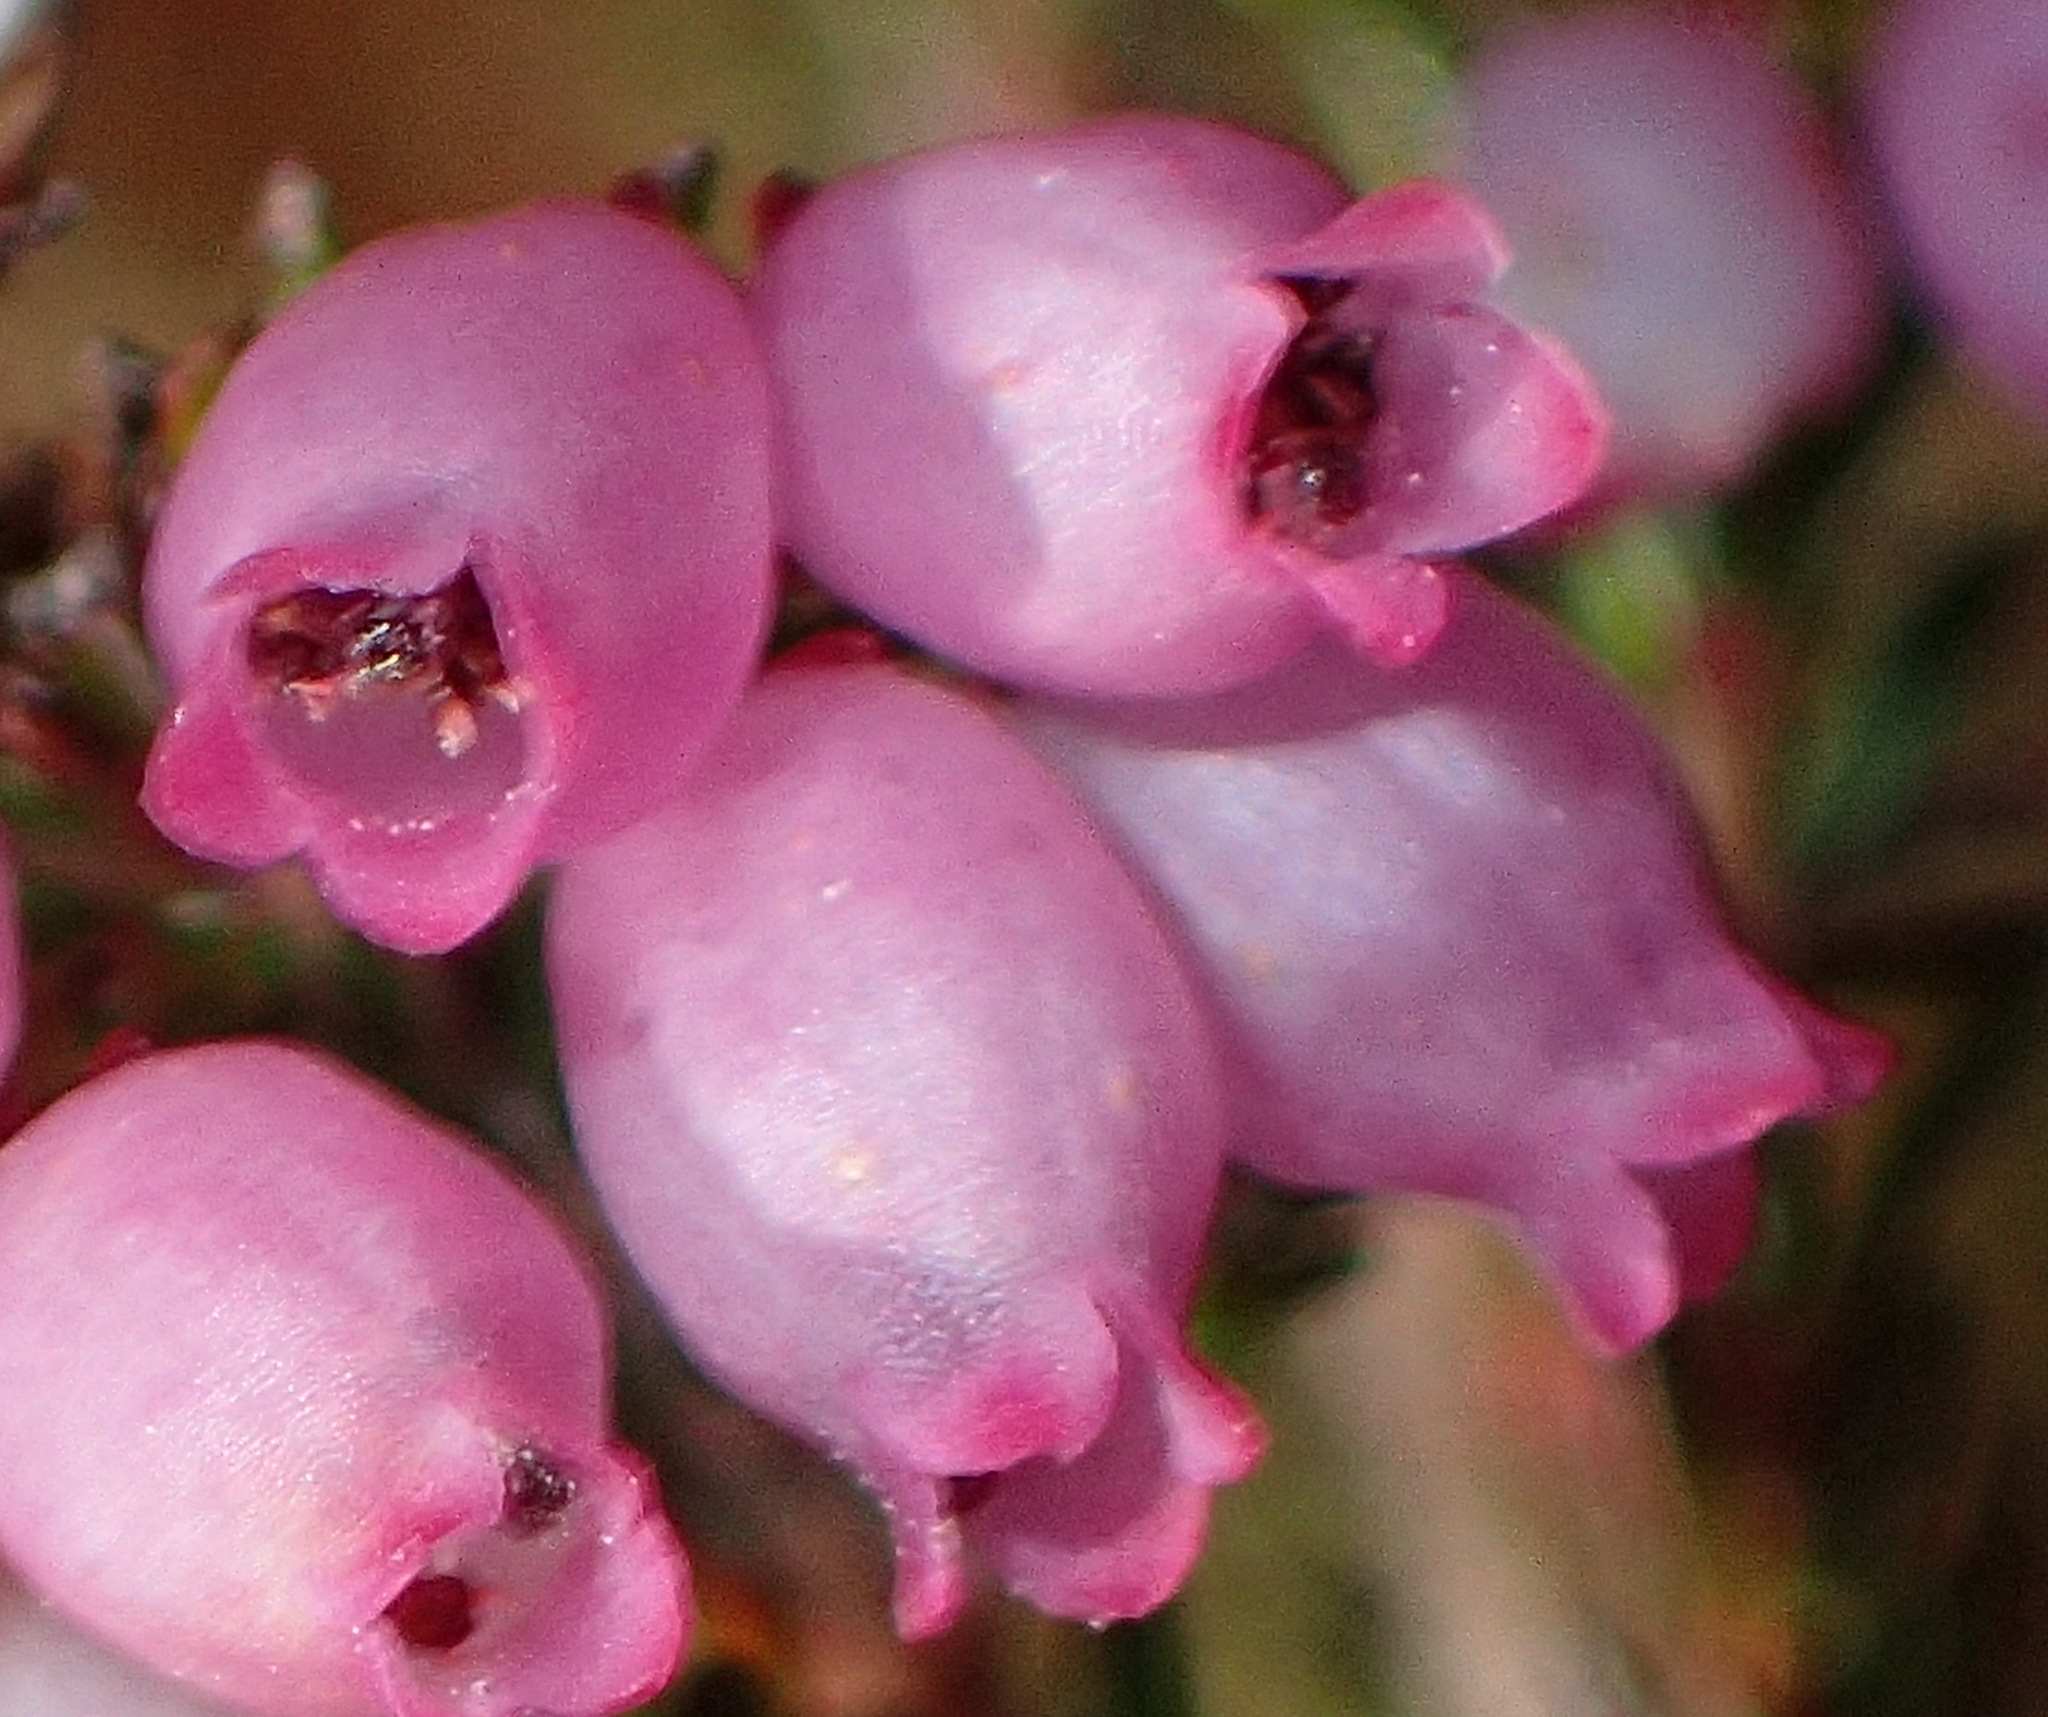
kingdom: Plantae
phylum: Tracheophyta
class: Magnoliopsida
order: Ericales
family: Ericaceae
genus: Erica
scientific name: Erica gracilis
